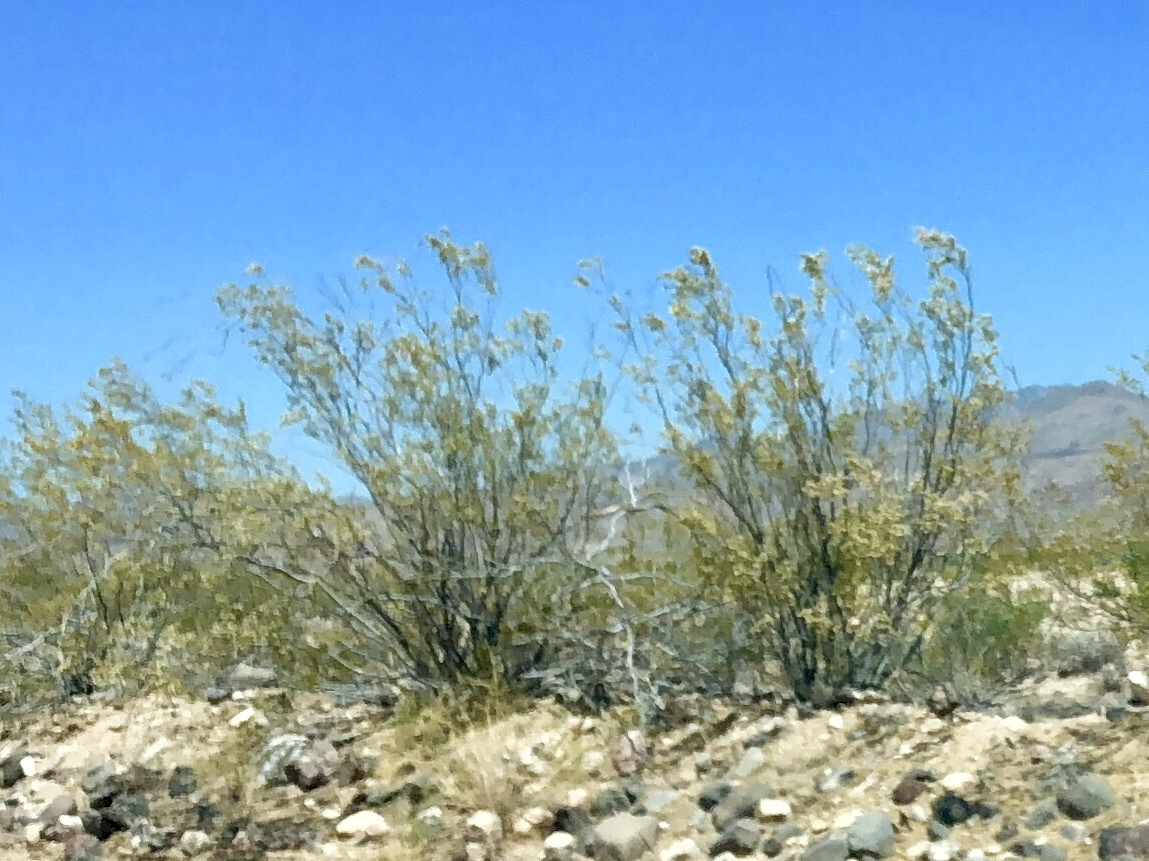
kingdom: Plantae
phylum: Tracheophyta
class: Magnoliopsida
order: Zygophyllales
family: Zygophyllaceae
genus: Larrea
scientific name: Larrea tridentata
